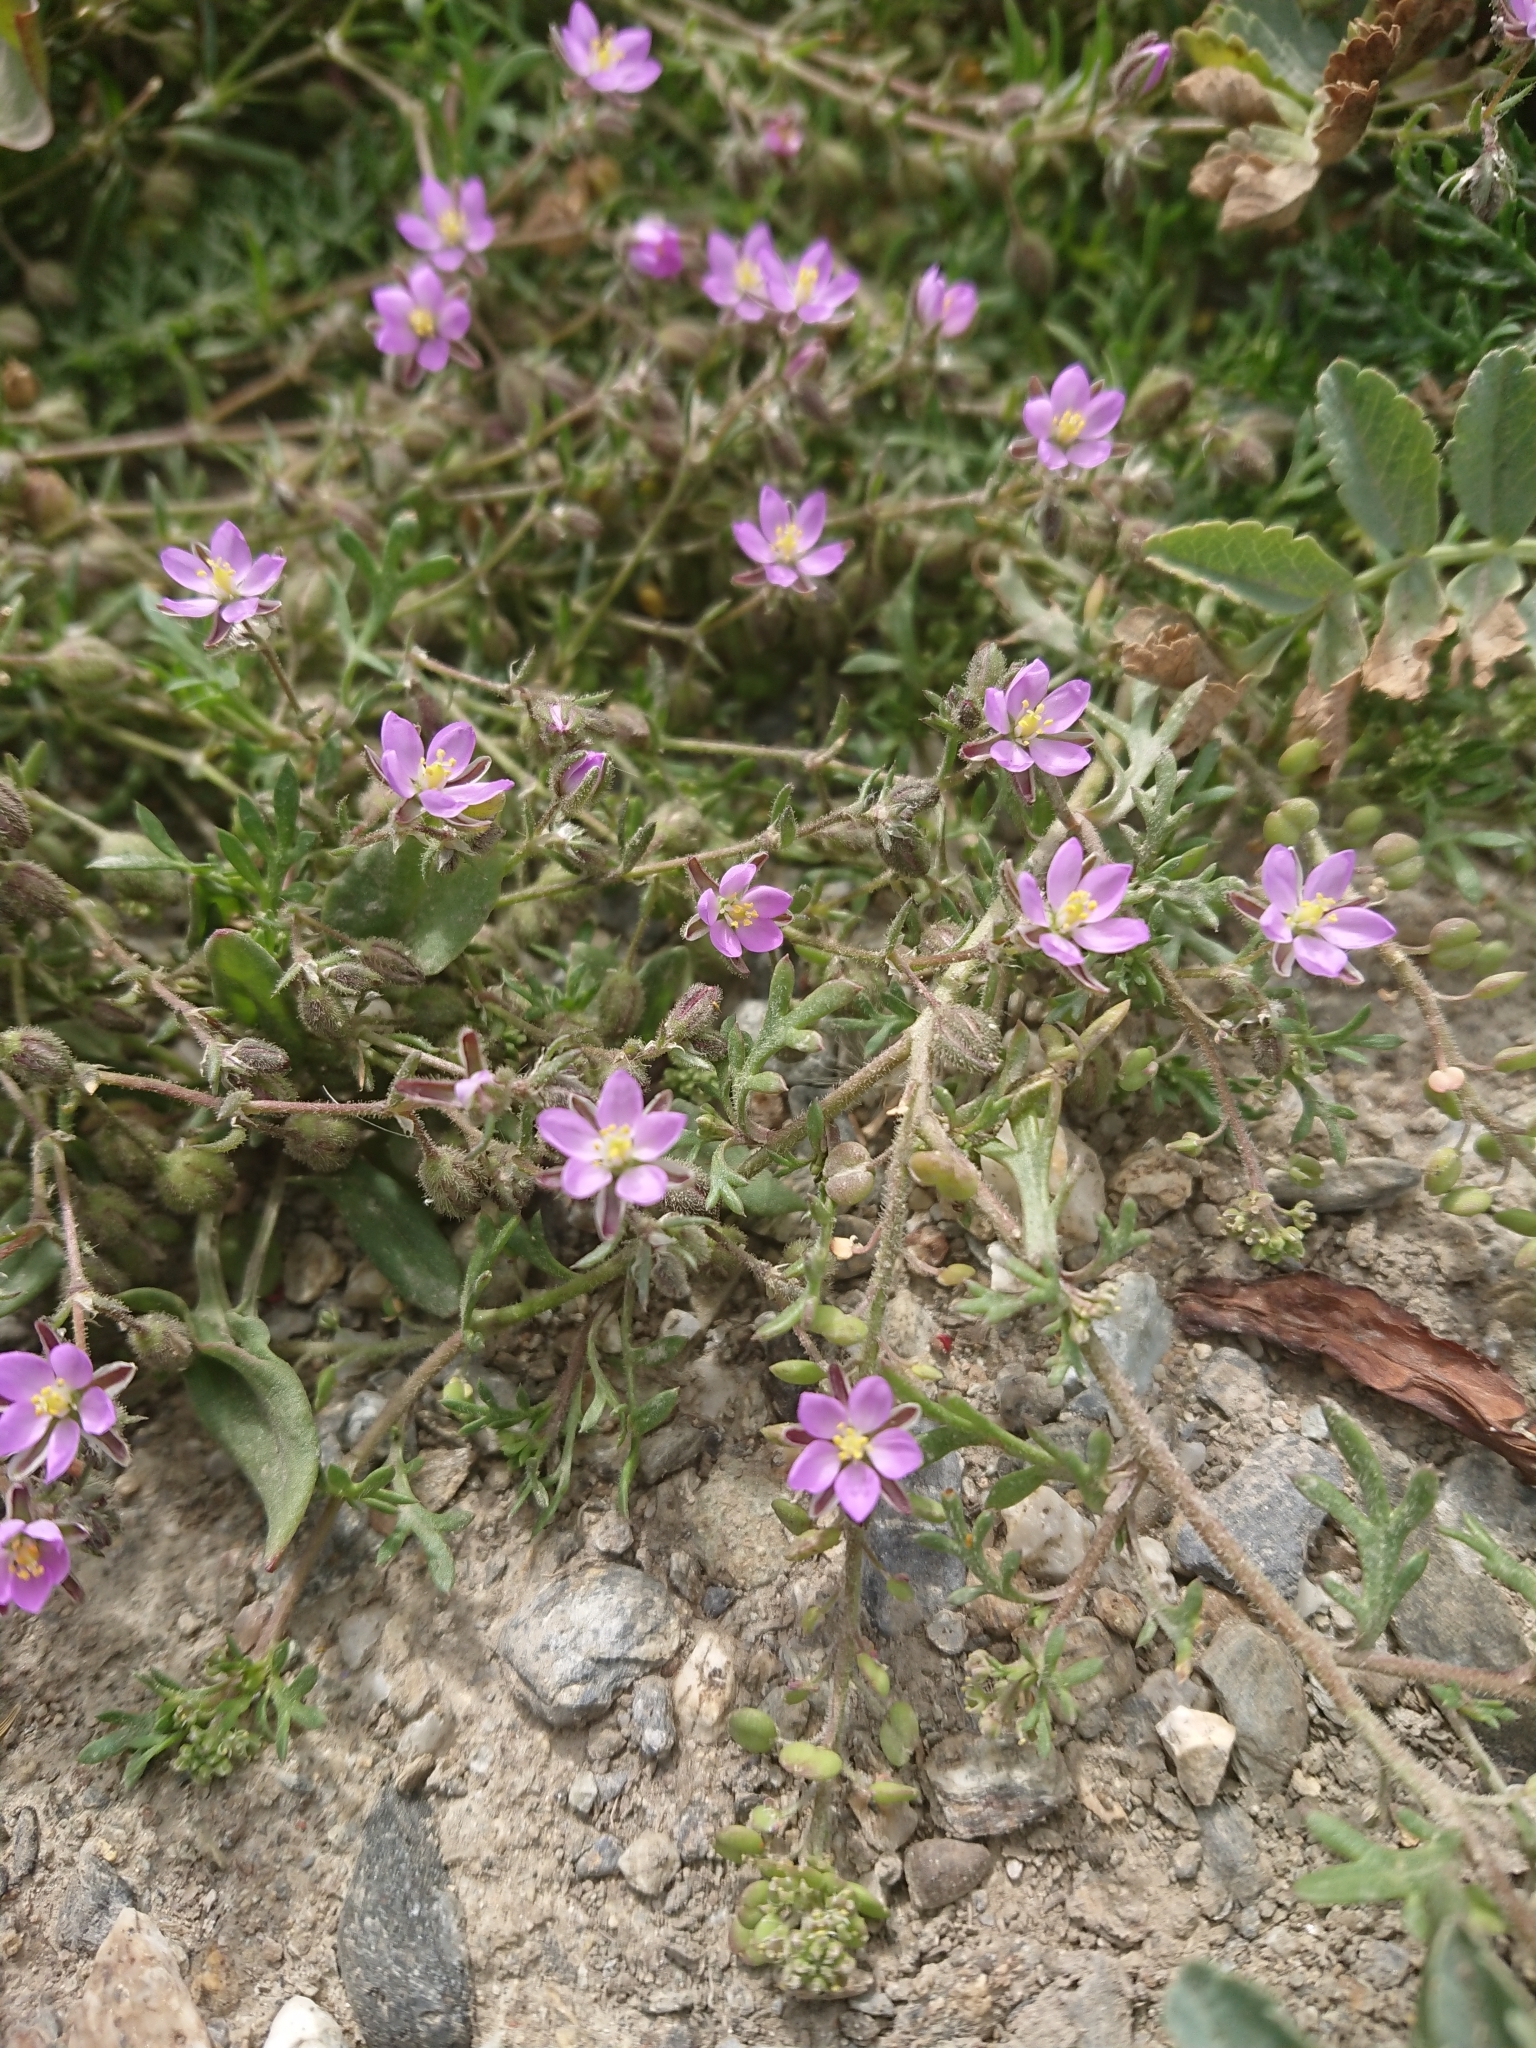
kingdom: Plantae
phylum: Tracheophyta
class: Magnoliopsida
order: Caryophyllales
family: Caryophyllaceae
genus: Spergularia
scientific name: Spergularia marina
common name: Lesser sea-spurrey
